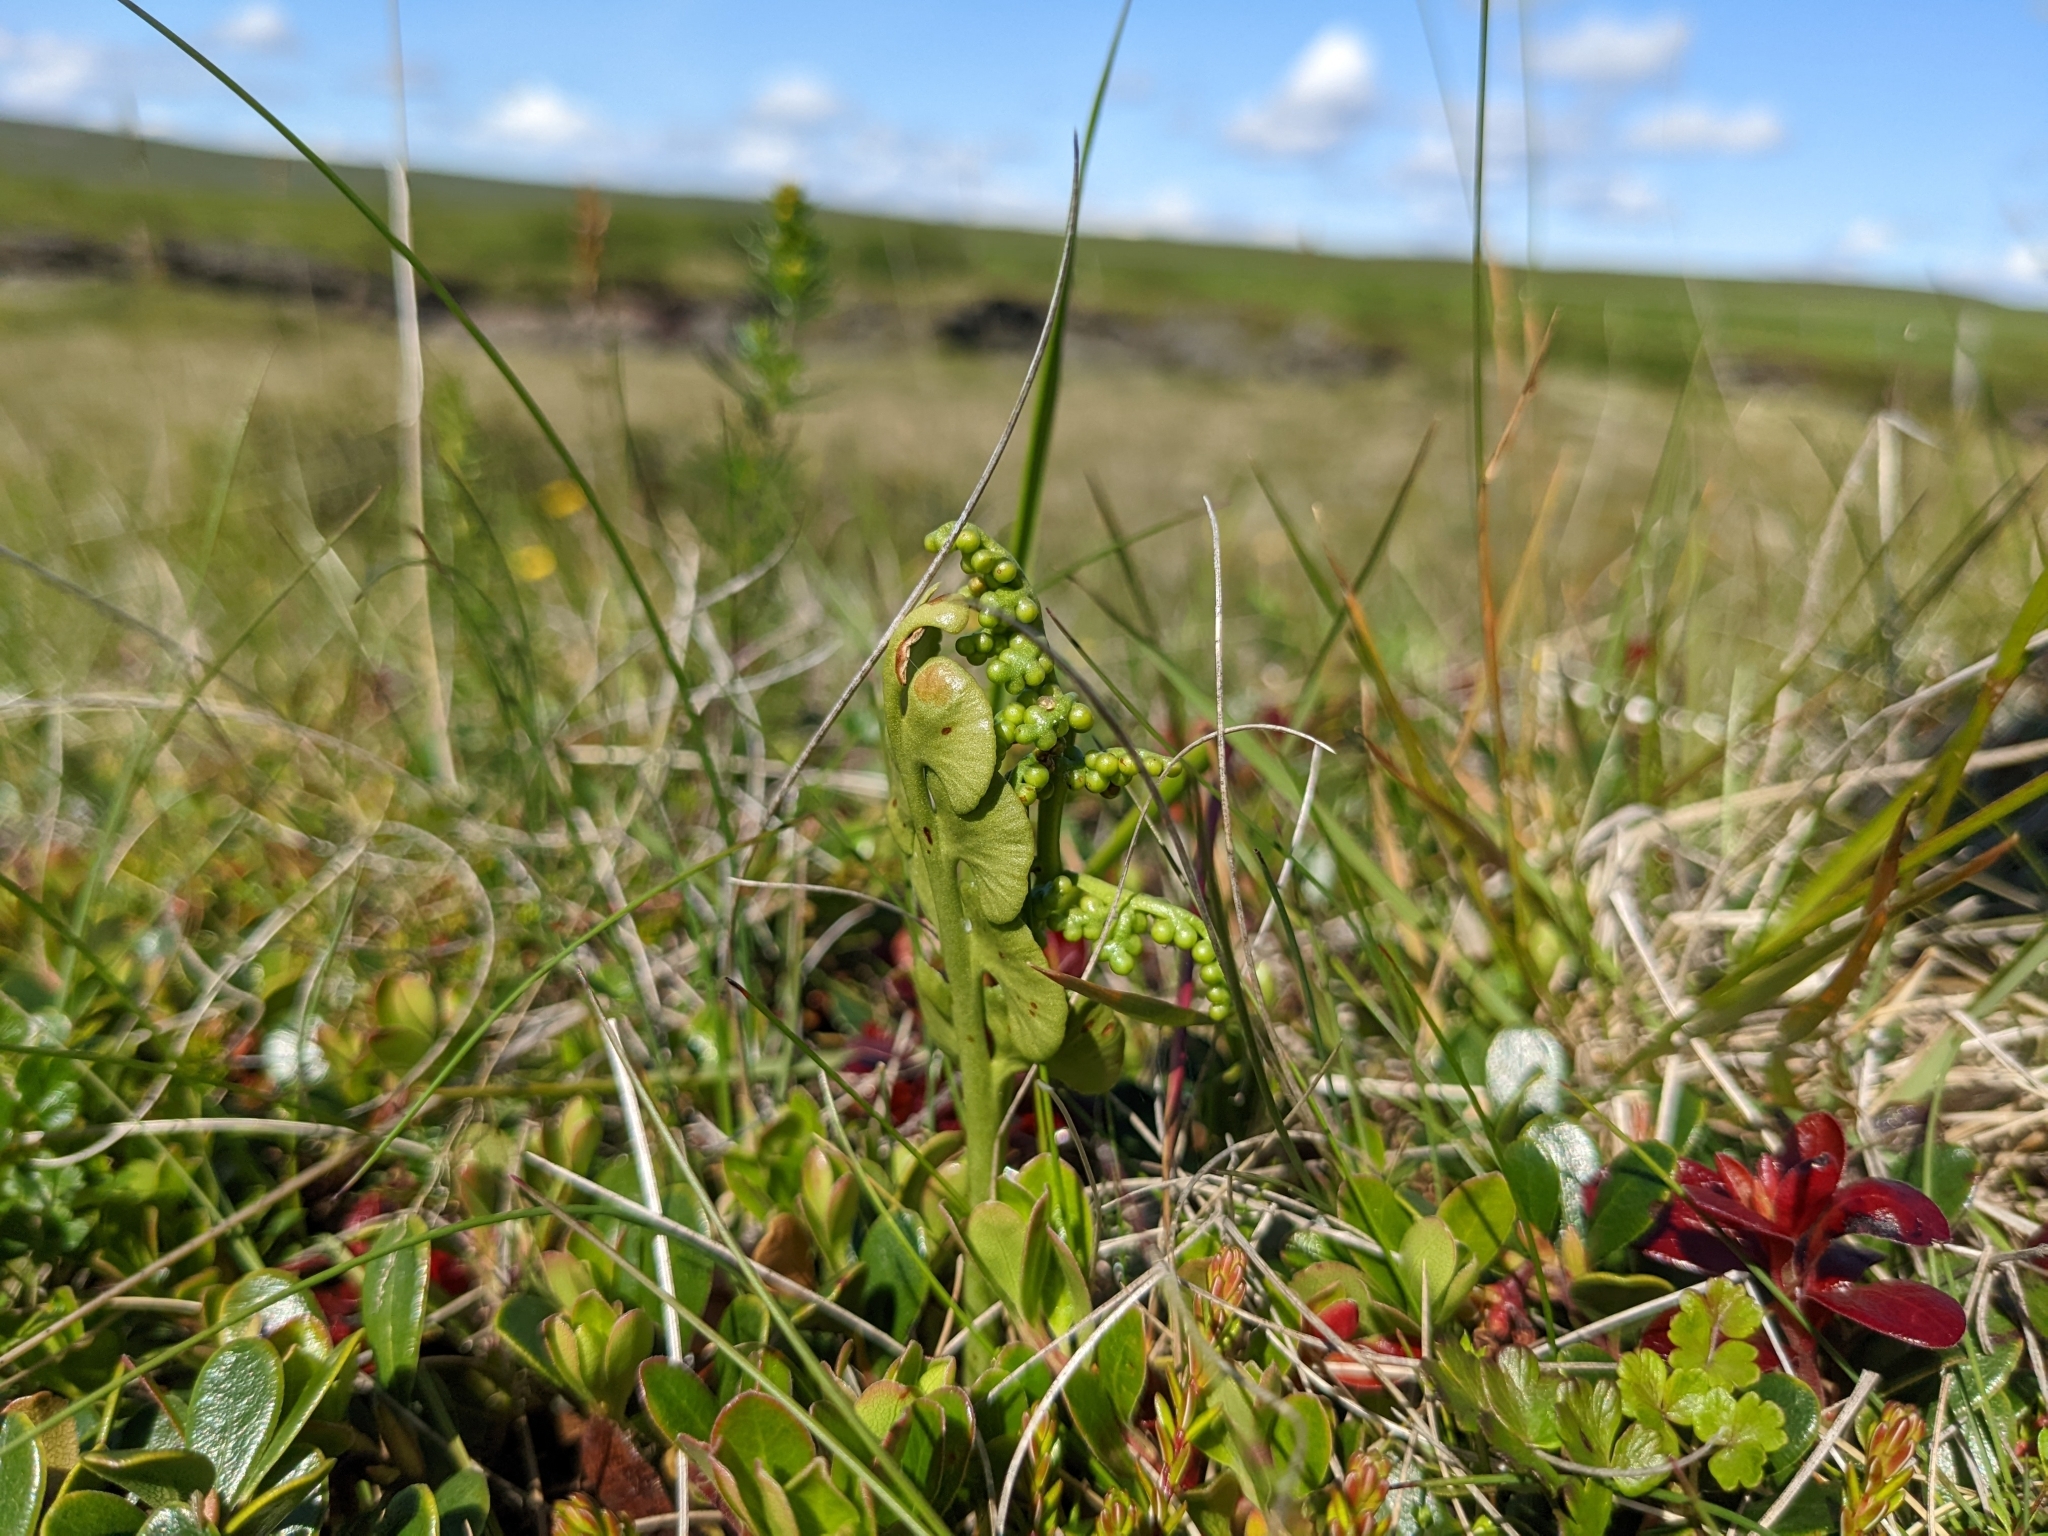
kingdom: Plantae
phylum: Tracheophyta
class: Polypodiopsida
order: Ophioglossales
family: Ophioglossaceae
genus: Botrychium
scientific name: Botrychium lunaria
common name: Moonwort
